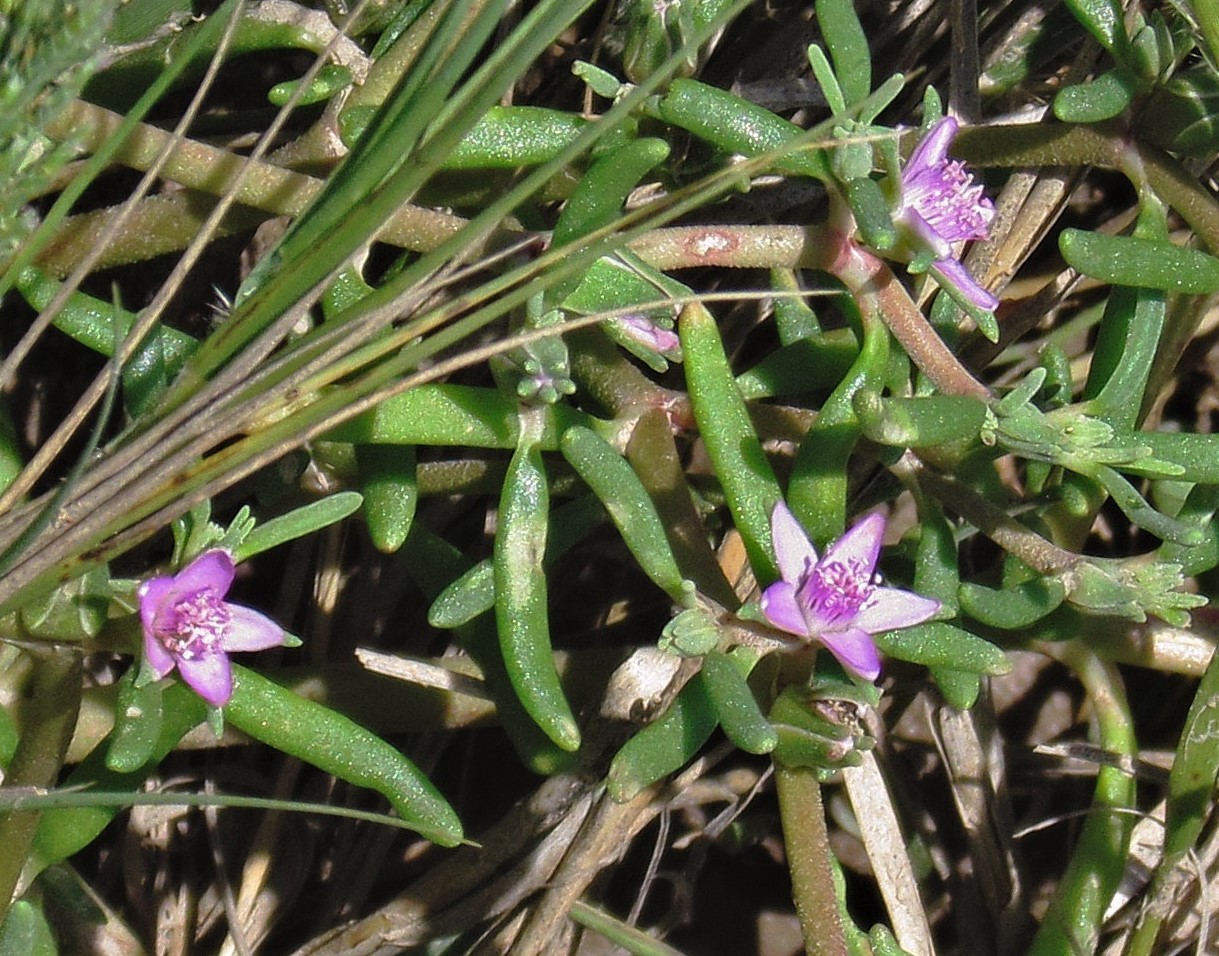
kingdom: Plantae
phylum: Tracheophyta
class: Magnoliopsida
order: Caryophyllales
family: Aizoaceae
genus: Sesuvium
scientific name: Sesuvium portulacastrum
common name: Sea-purslane
